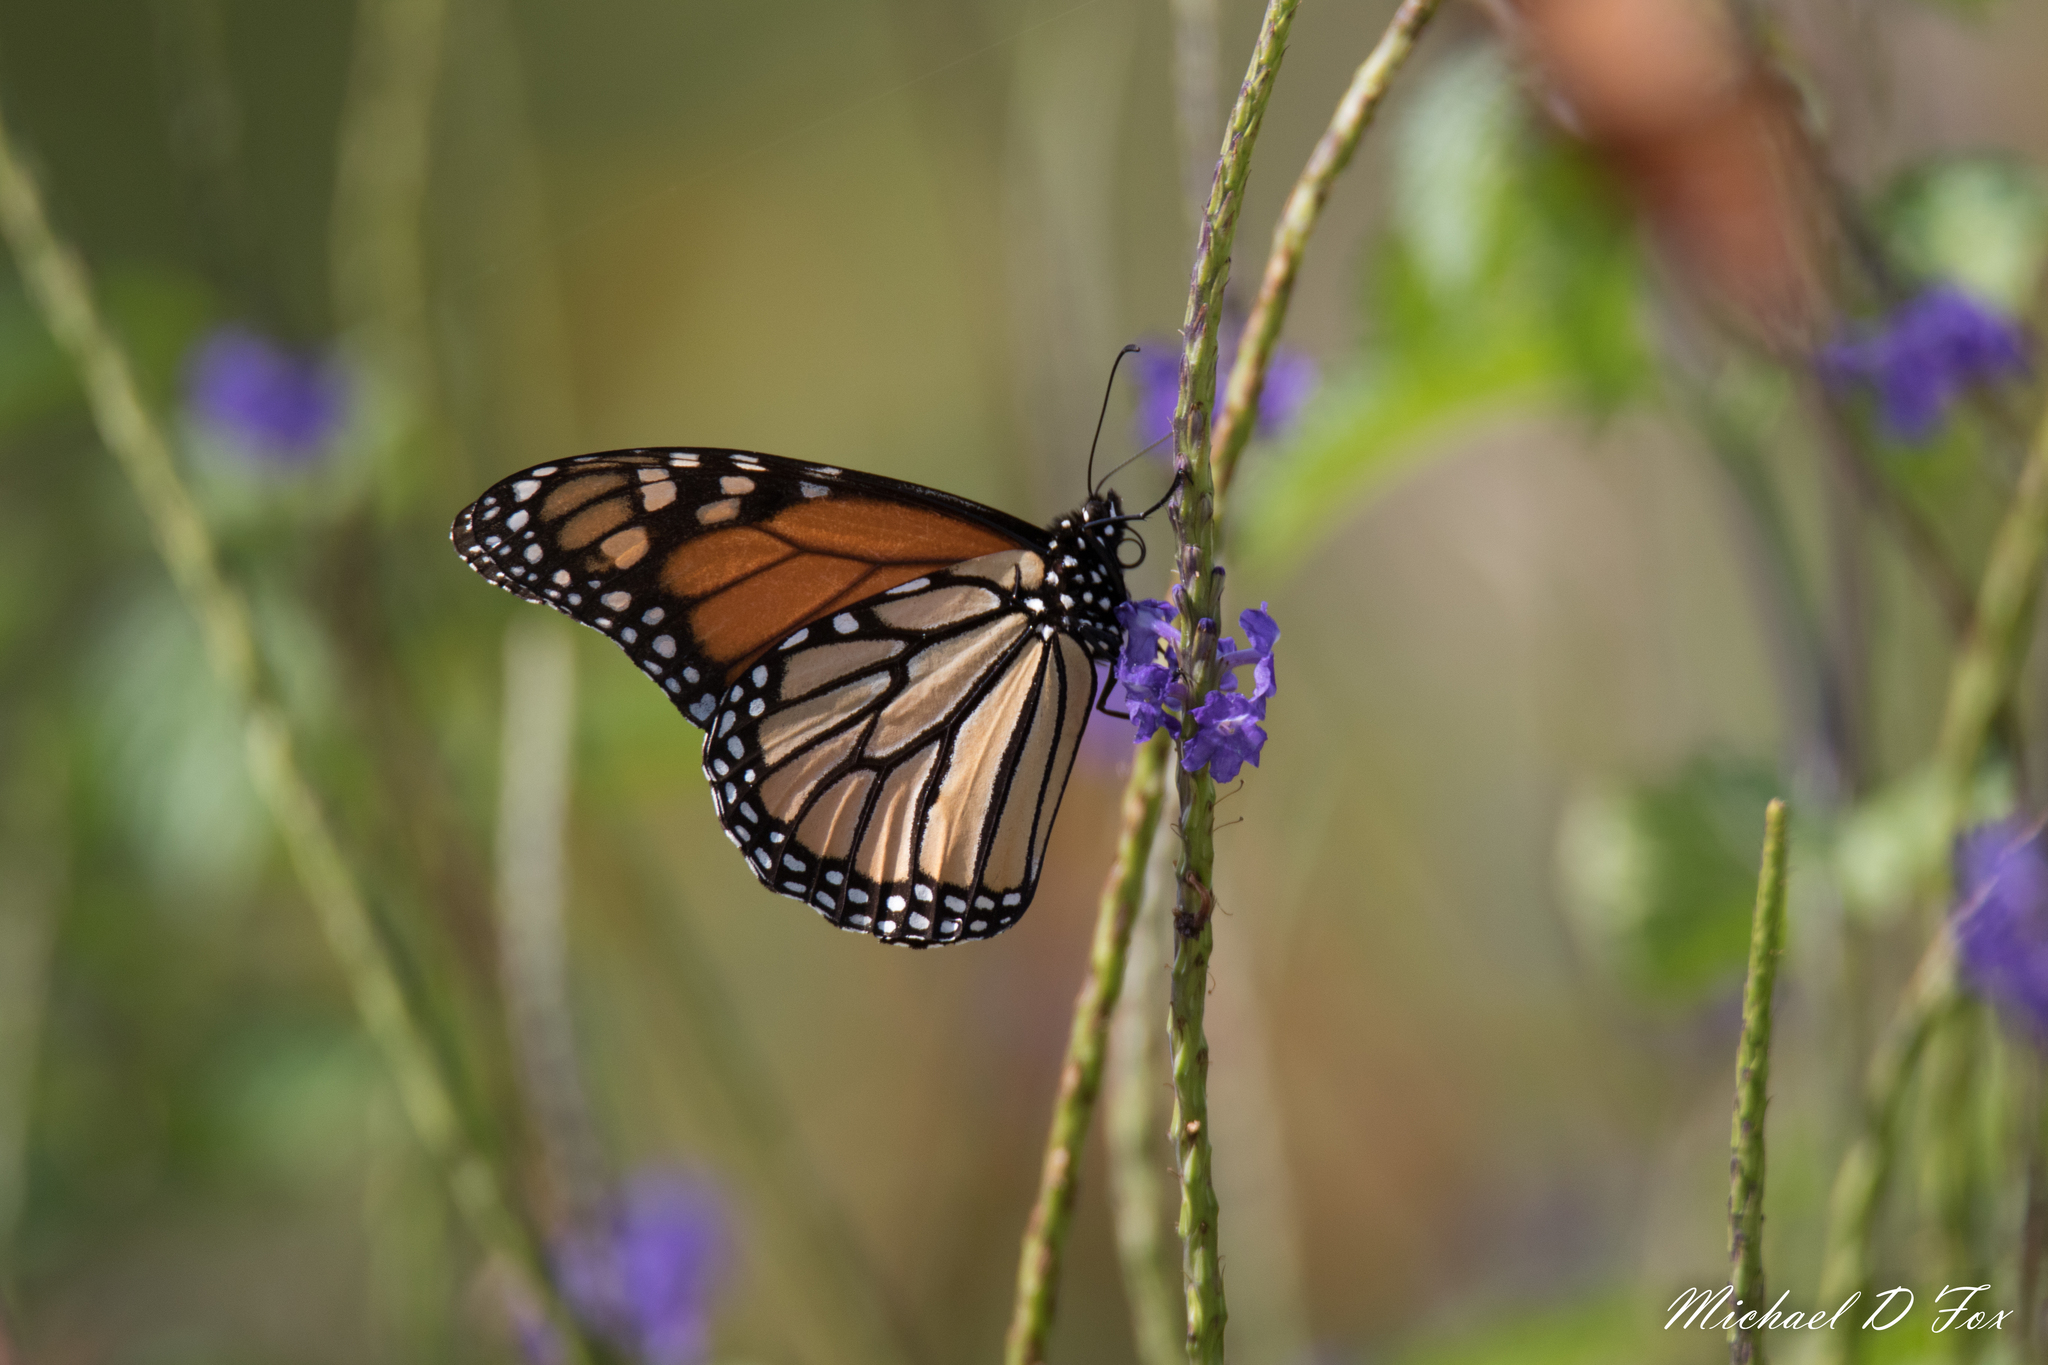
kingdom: Animalia
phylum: Arthropoda
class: Insecta
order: Lepidoptera
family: Nymphalidae
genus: Danaus
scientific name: Danaus plexippus
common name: Monarch
